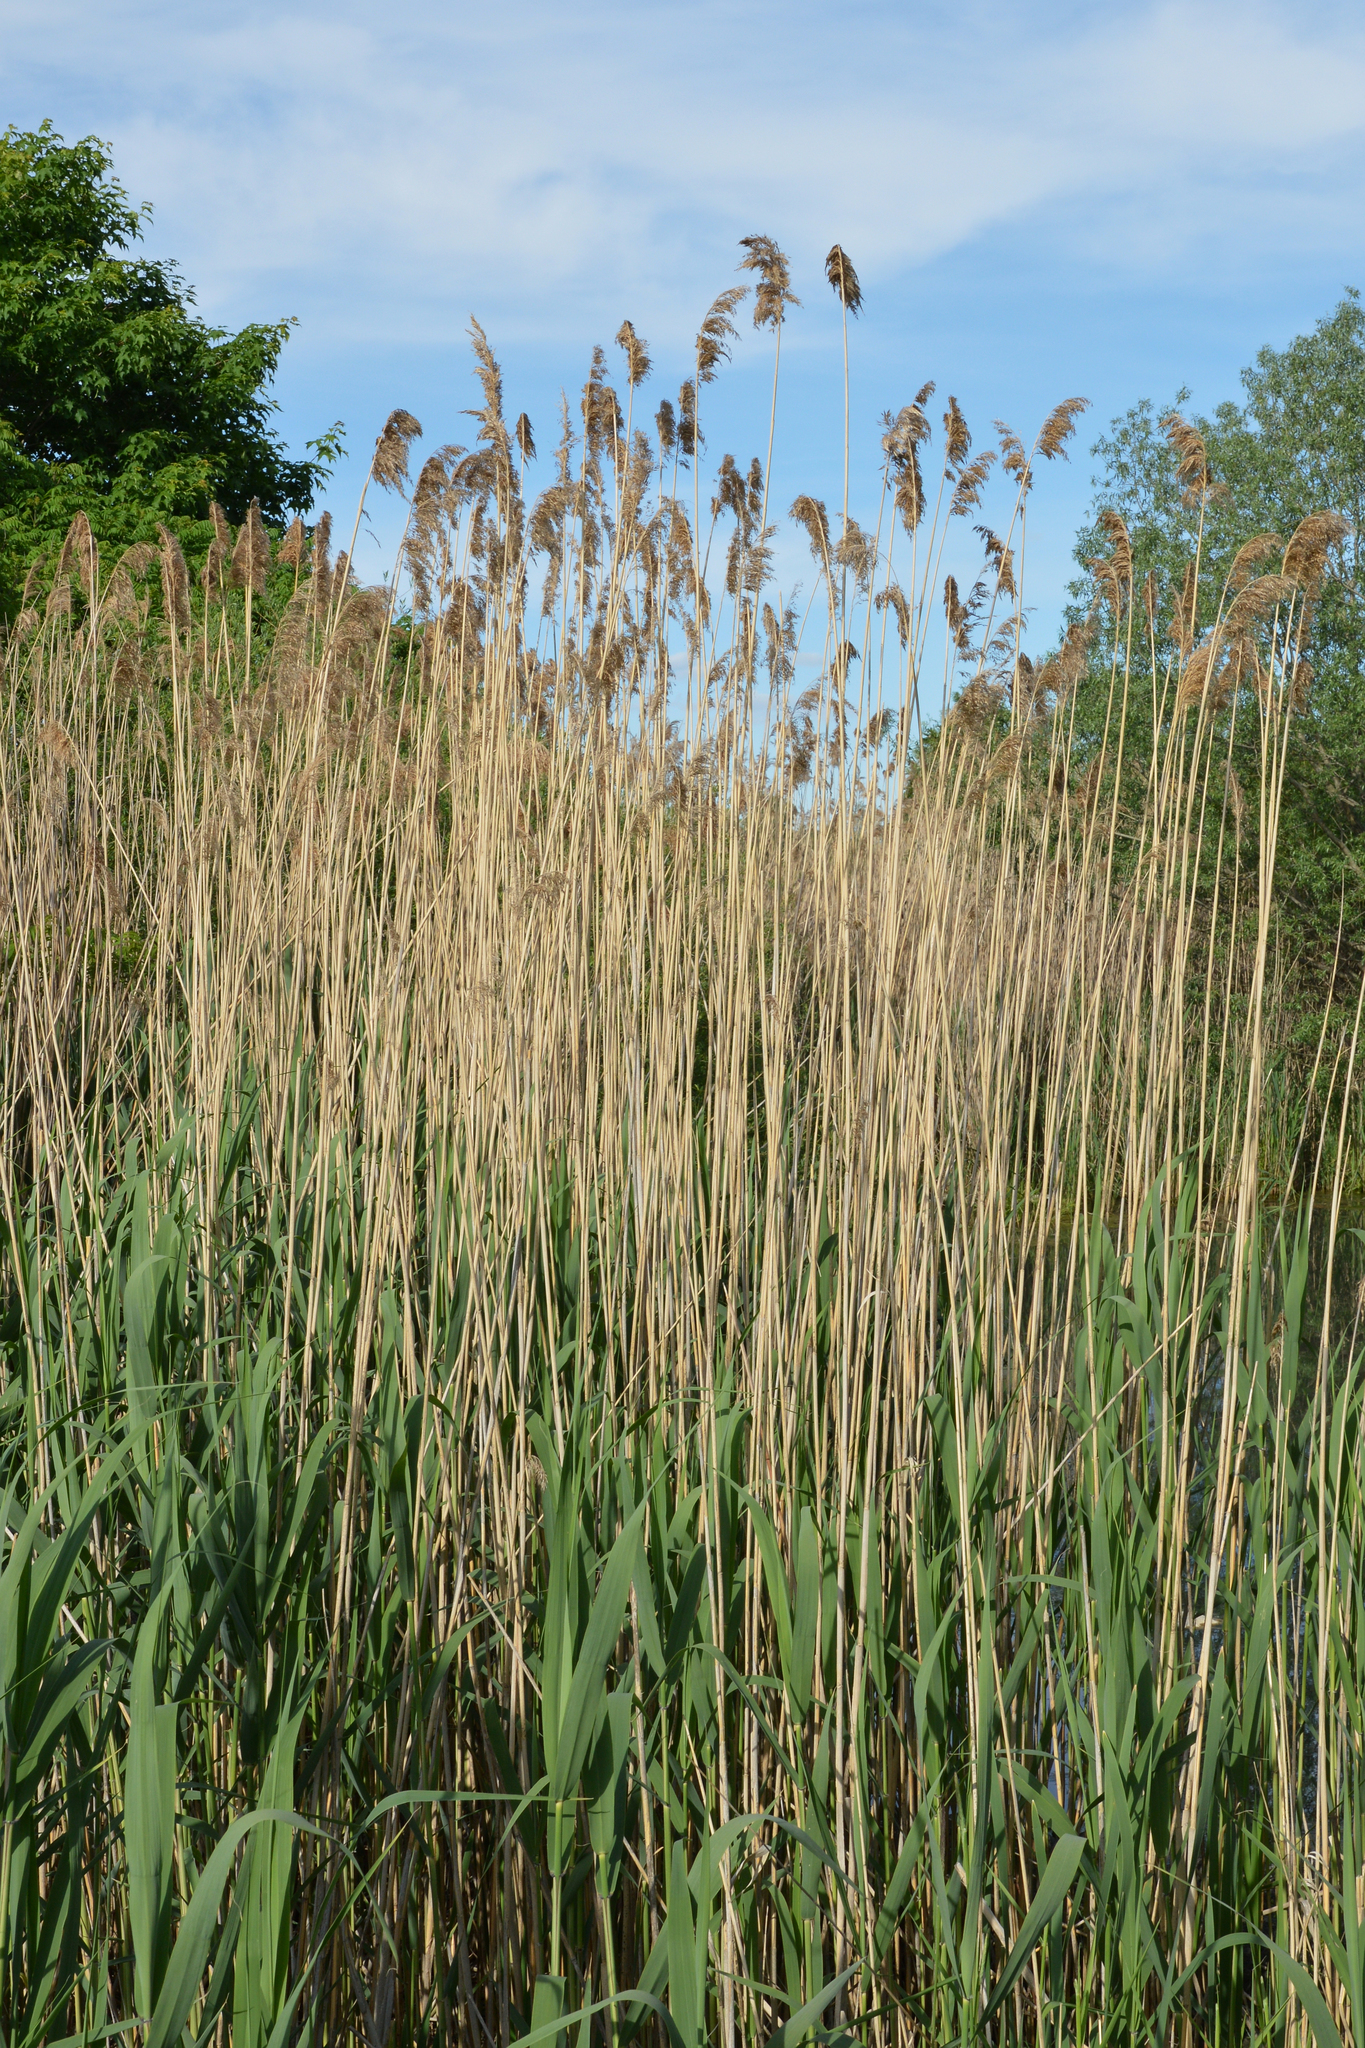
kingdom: Plantae
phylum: Tracheophyta
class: Liliopsida
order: Poales
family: Poaceae
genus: Phragmites
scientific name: Phragmites australis
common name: Common reed
